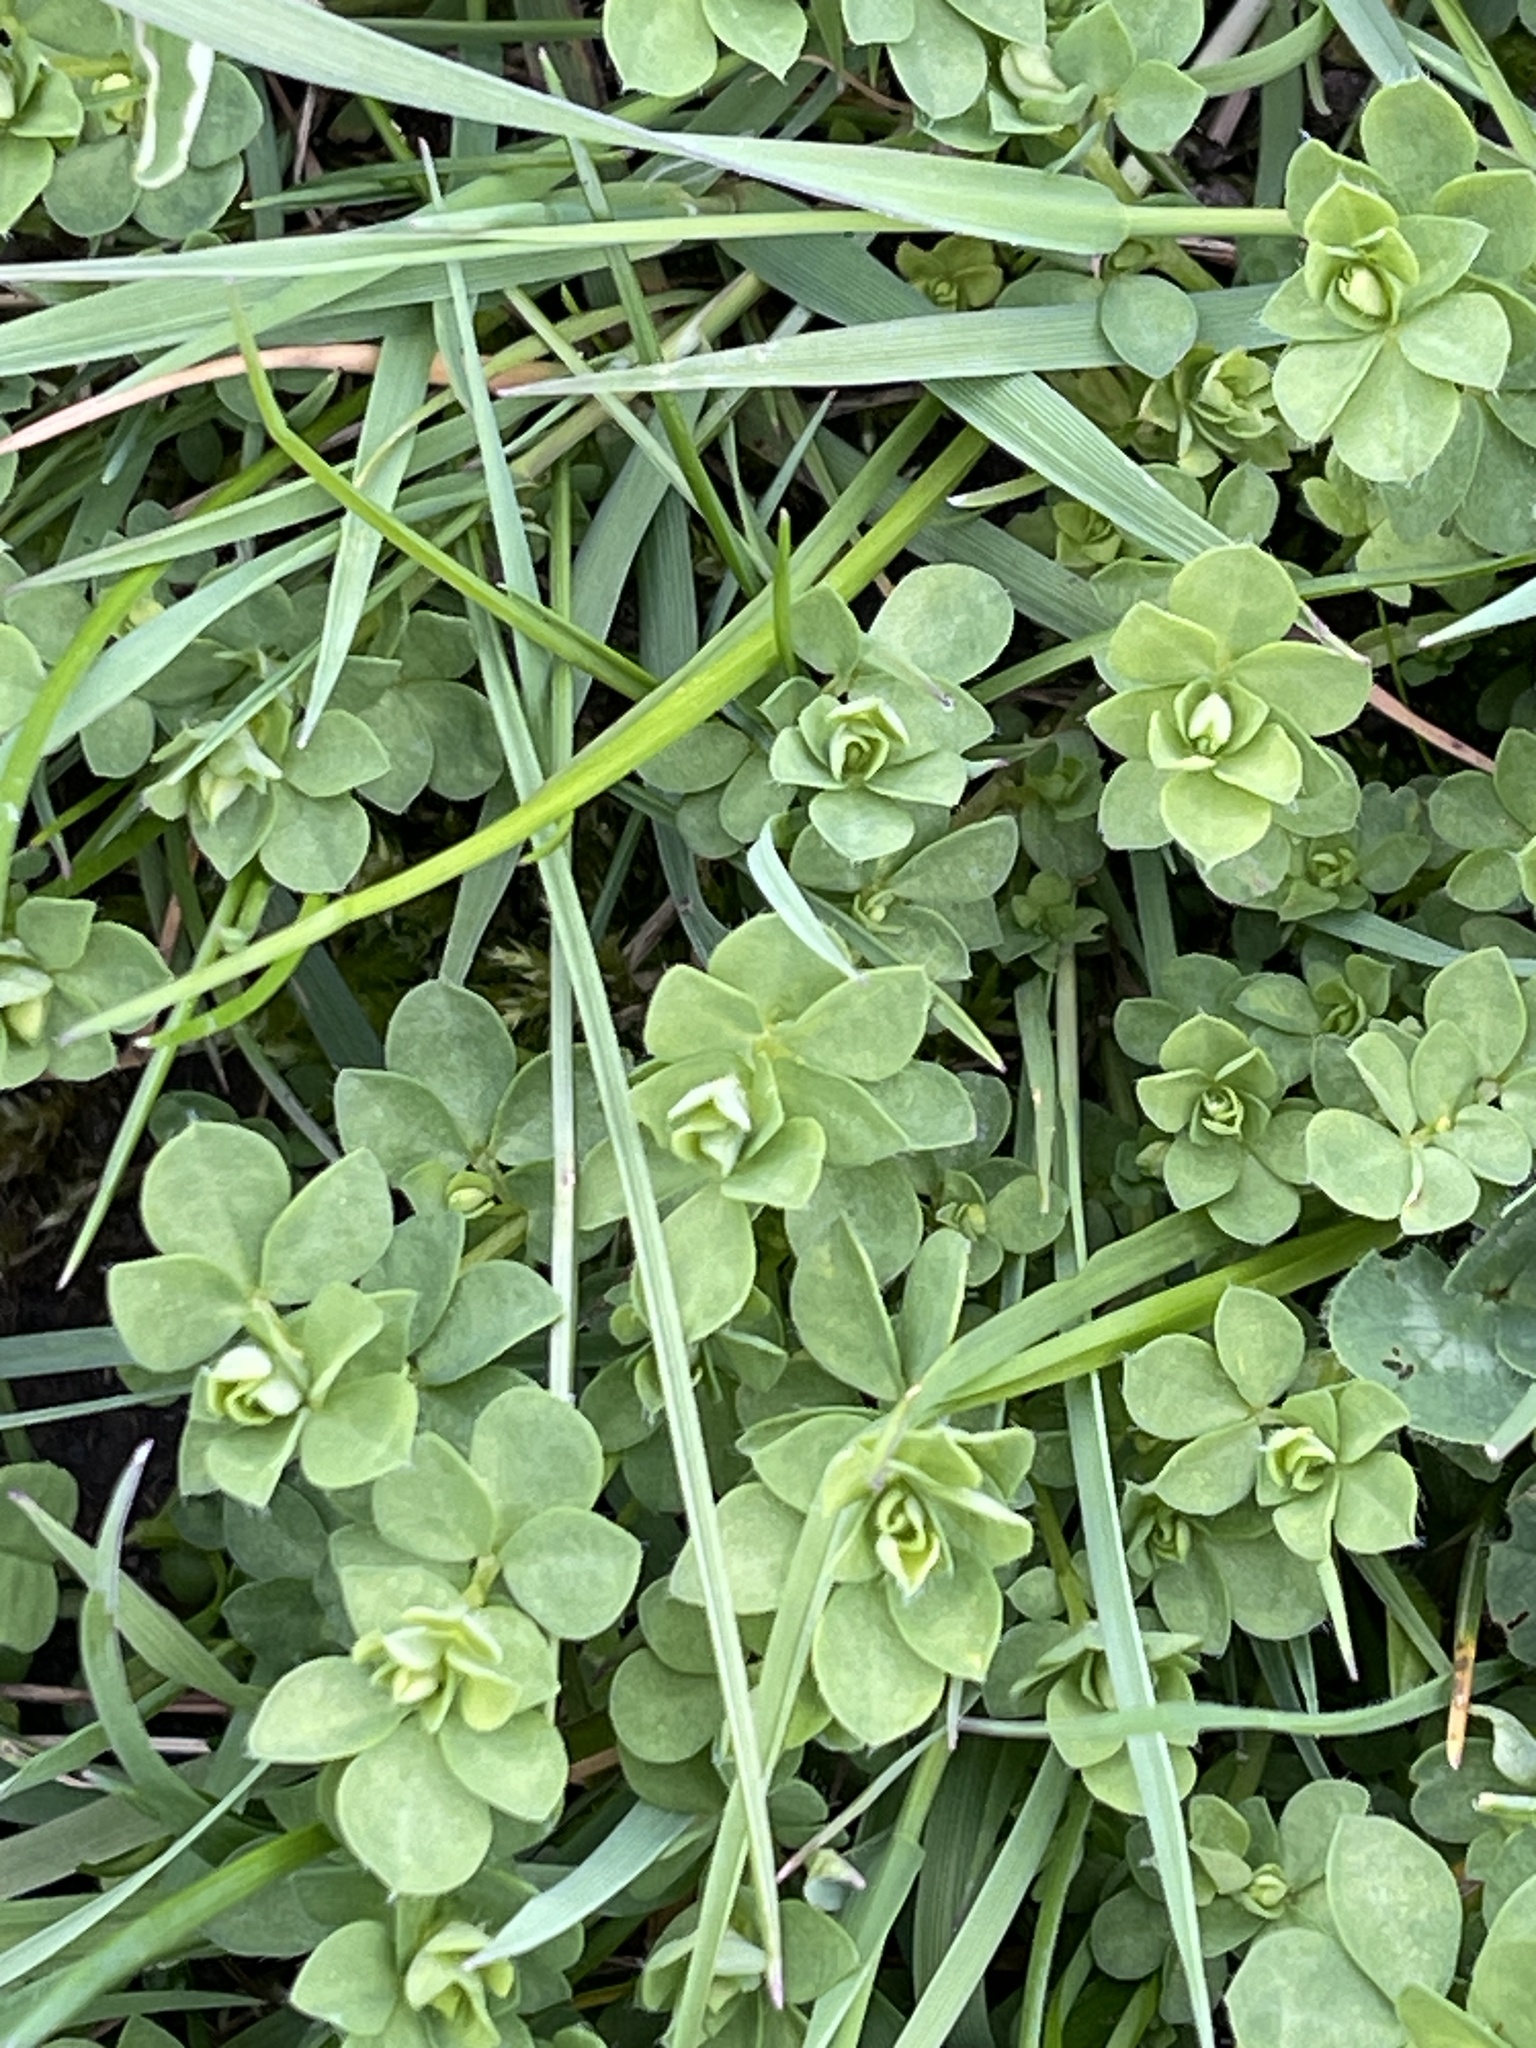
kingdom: Plantae
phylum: Tracheophyta
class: Magnoliopsida
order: Fabales
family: Fabaceae
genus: Lotus
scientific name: Lotus corniculatus
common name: Common bird's-foot-trefoil
